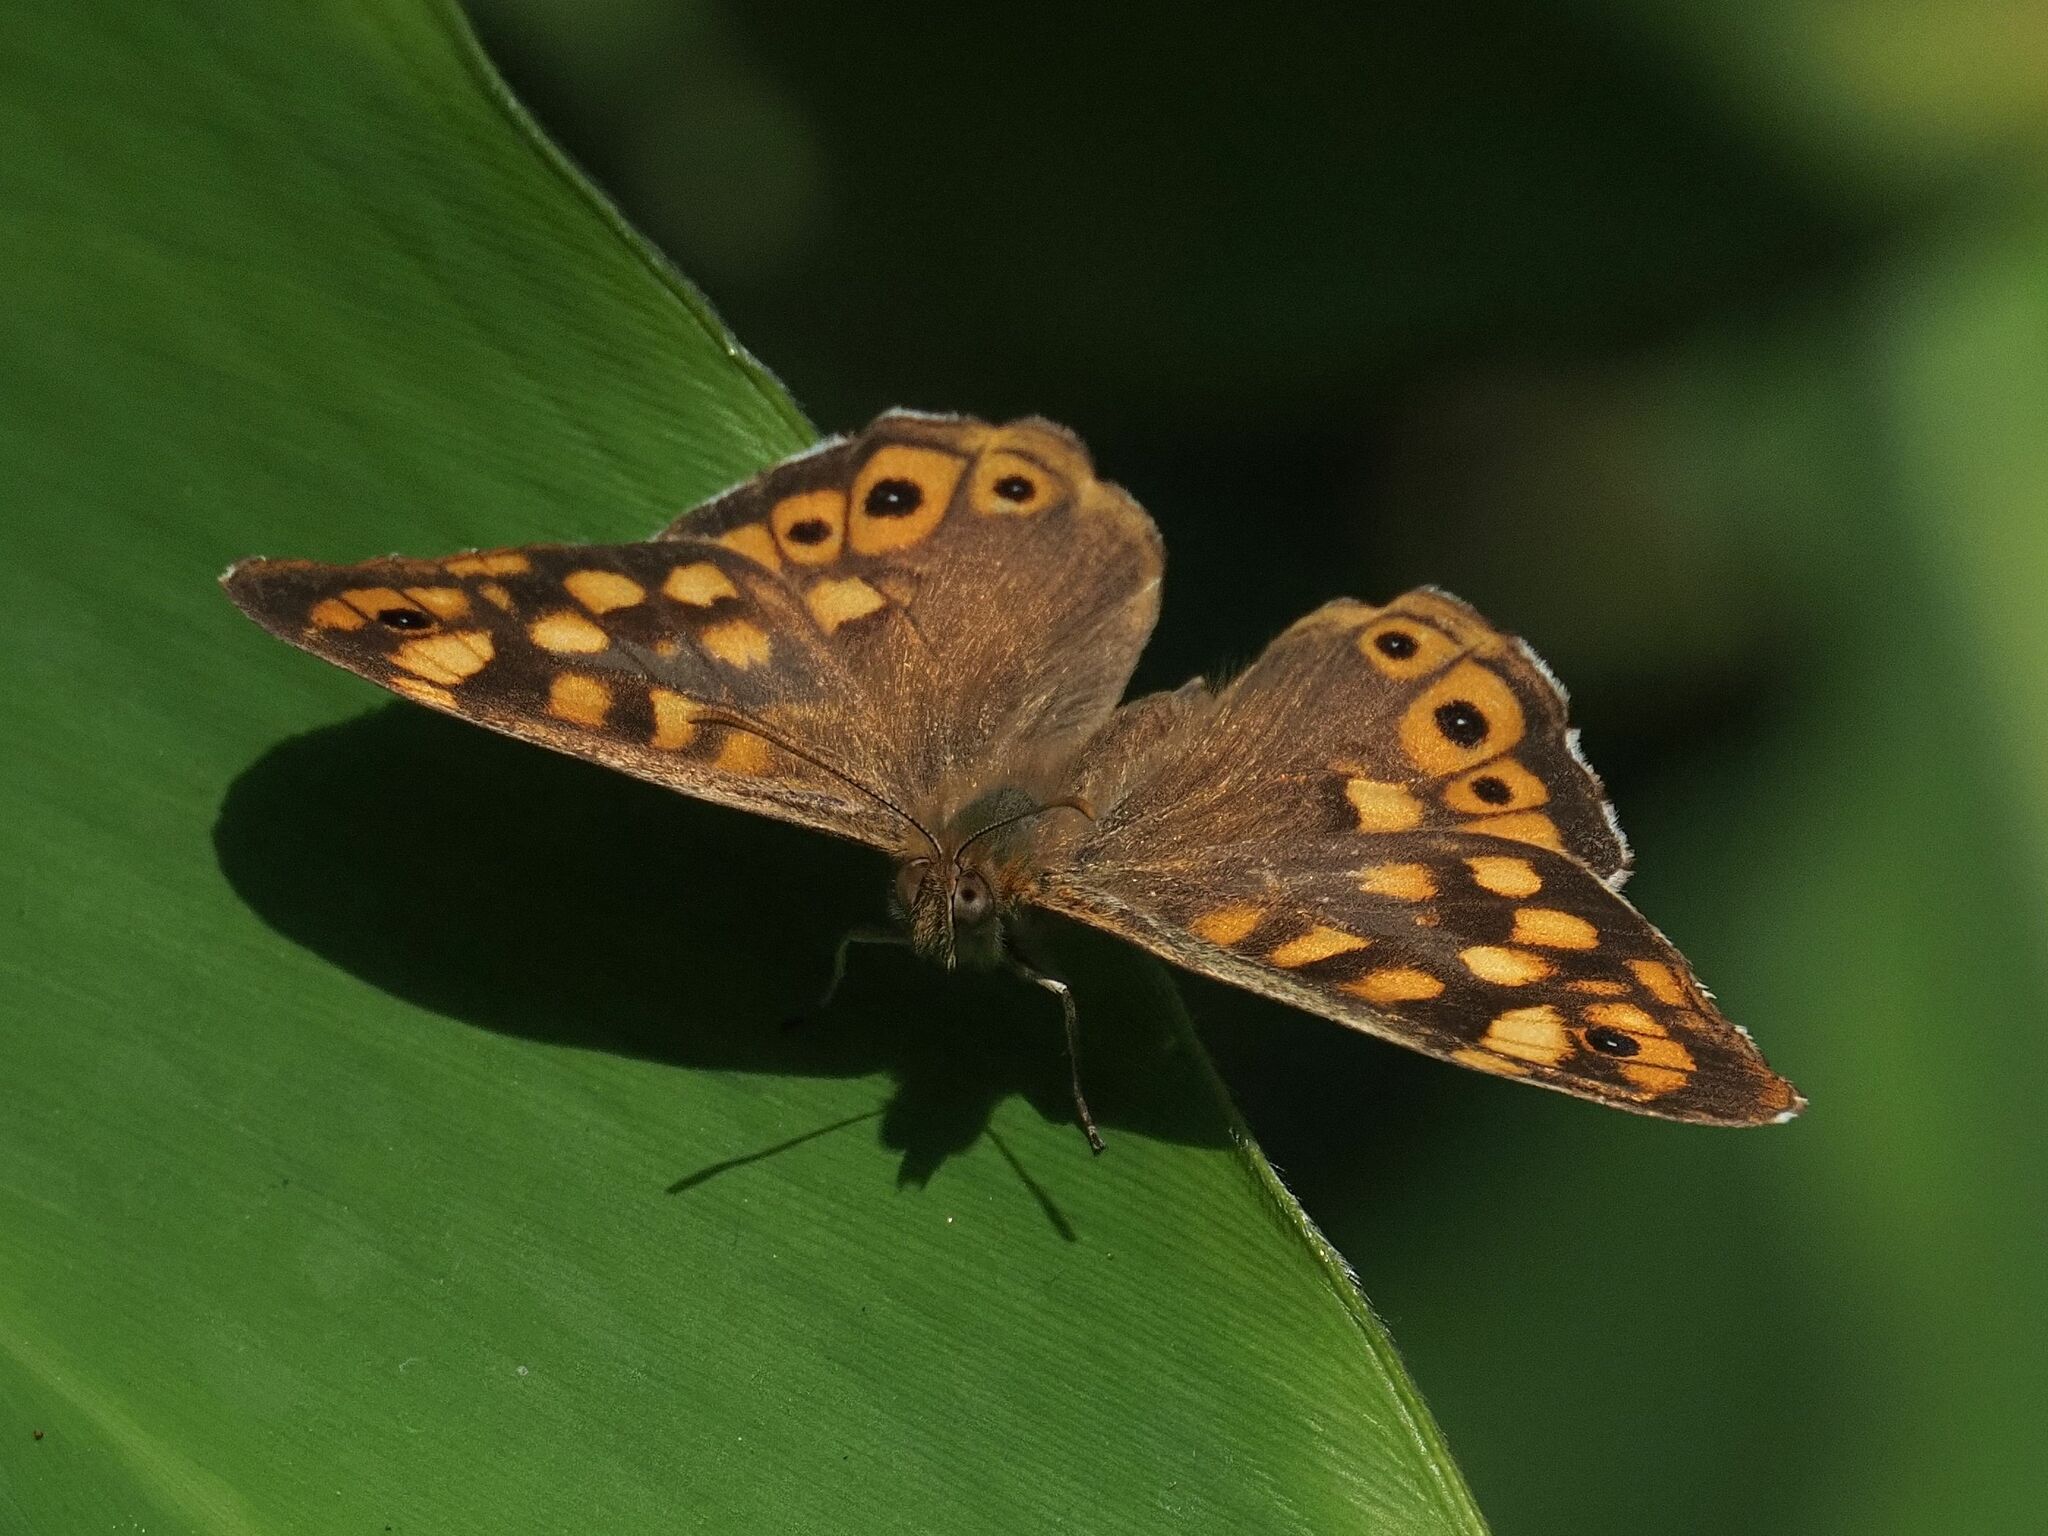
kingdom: Animalia
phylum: Arthropoda
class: Insecta
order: Lepidoptera
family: Nymphalidae
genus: Pararge
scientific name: Pararge aegeria
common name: Speckled wood
